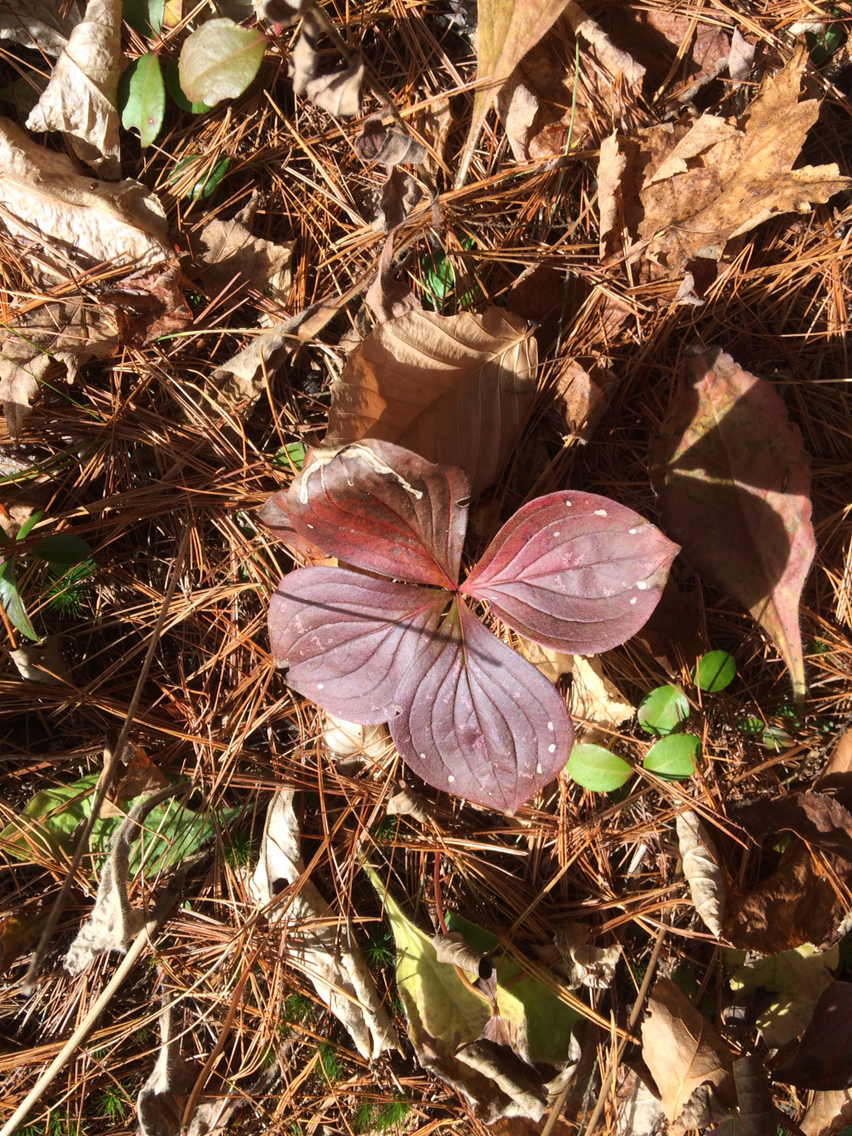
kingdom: Plantae
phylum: Tracheophyta
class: Magnoliopsida
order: Cornales
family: Cornaceae
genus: Cornus
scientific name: Cornus canadensis
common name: Creeping dogwood
